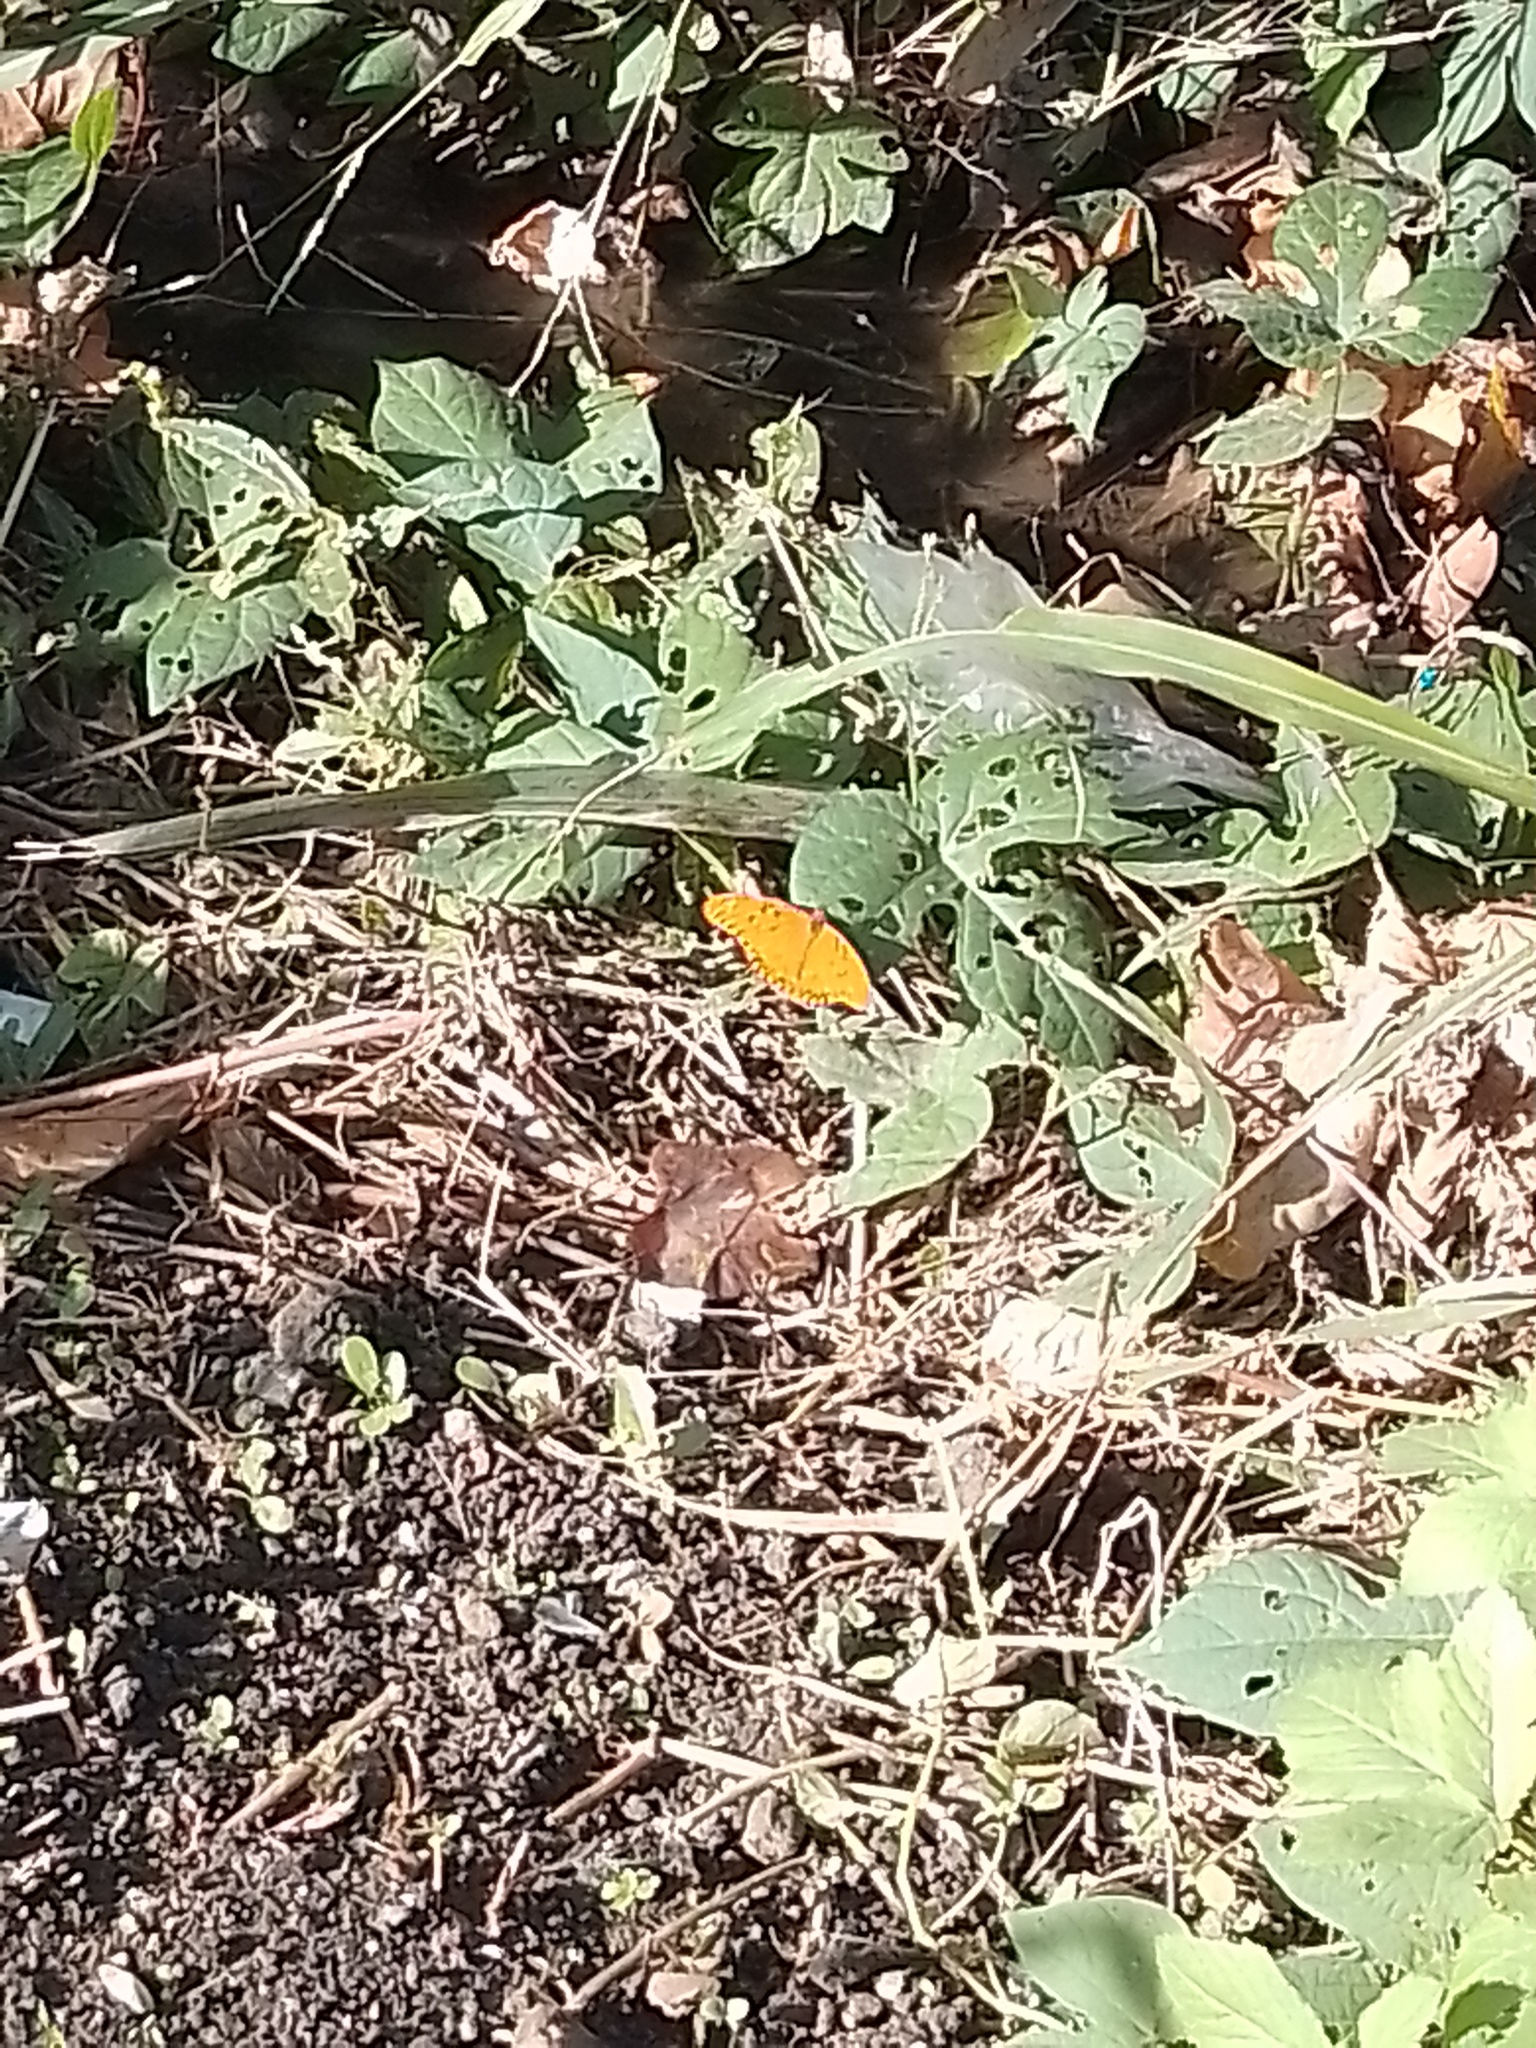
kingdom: Animalia
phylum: Arthropoda
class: Insecta
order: Lepidoptera
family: Nymphalidae
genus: Dione
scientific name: Dione vanillae
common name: Gulf fritillary
